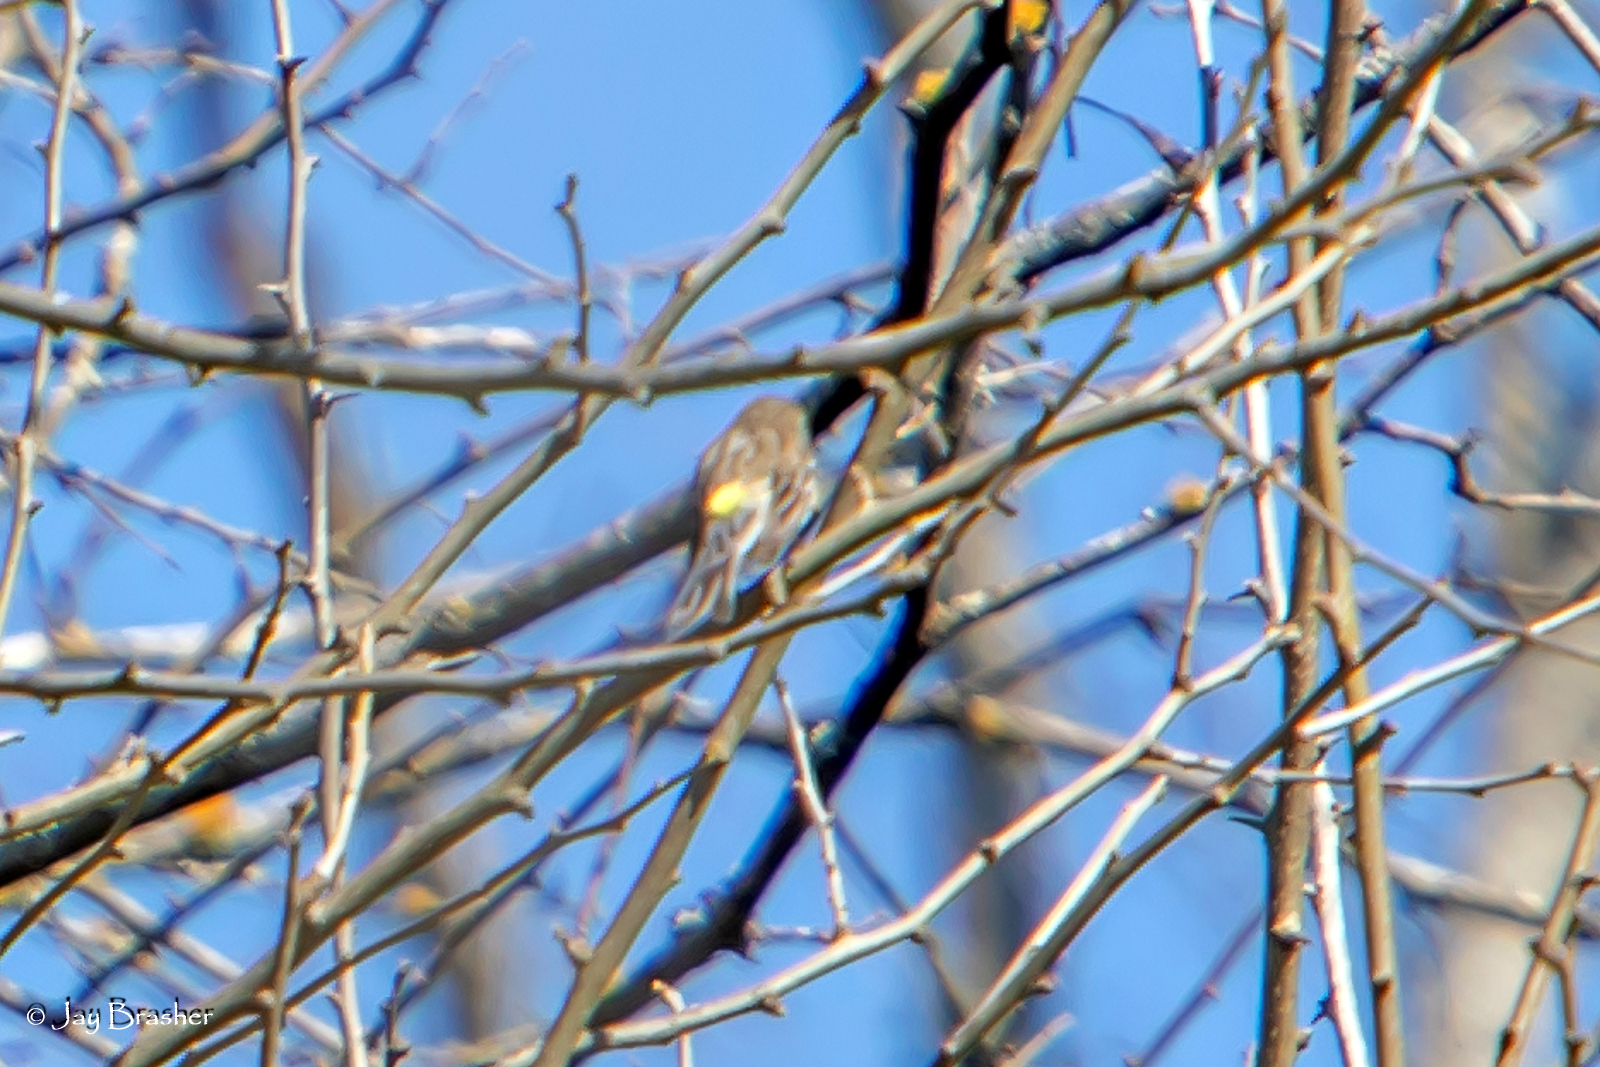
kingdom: Animalia
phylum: Chordata
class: Aves
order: Passeriformes
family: Parulidae
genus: Setophaga
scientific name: Setophaga coronata
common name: Myrtle warbler
